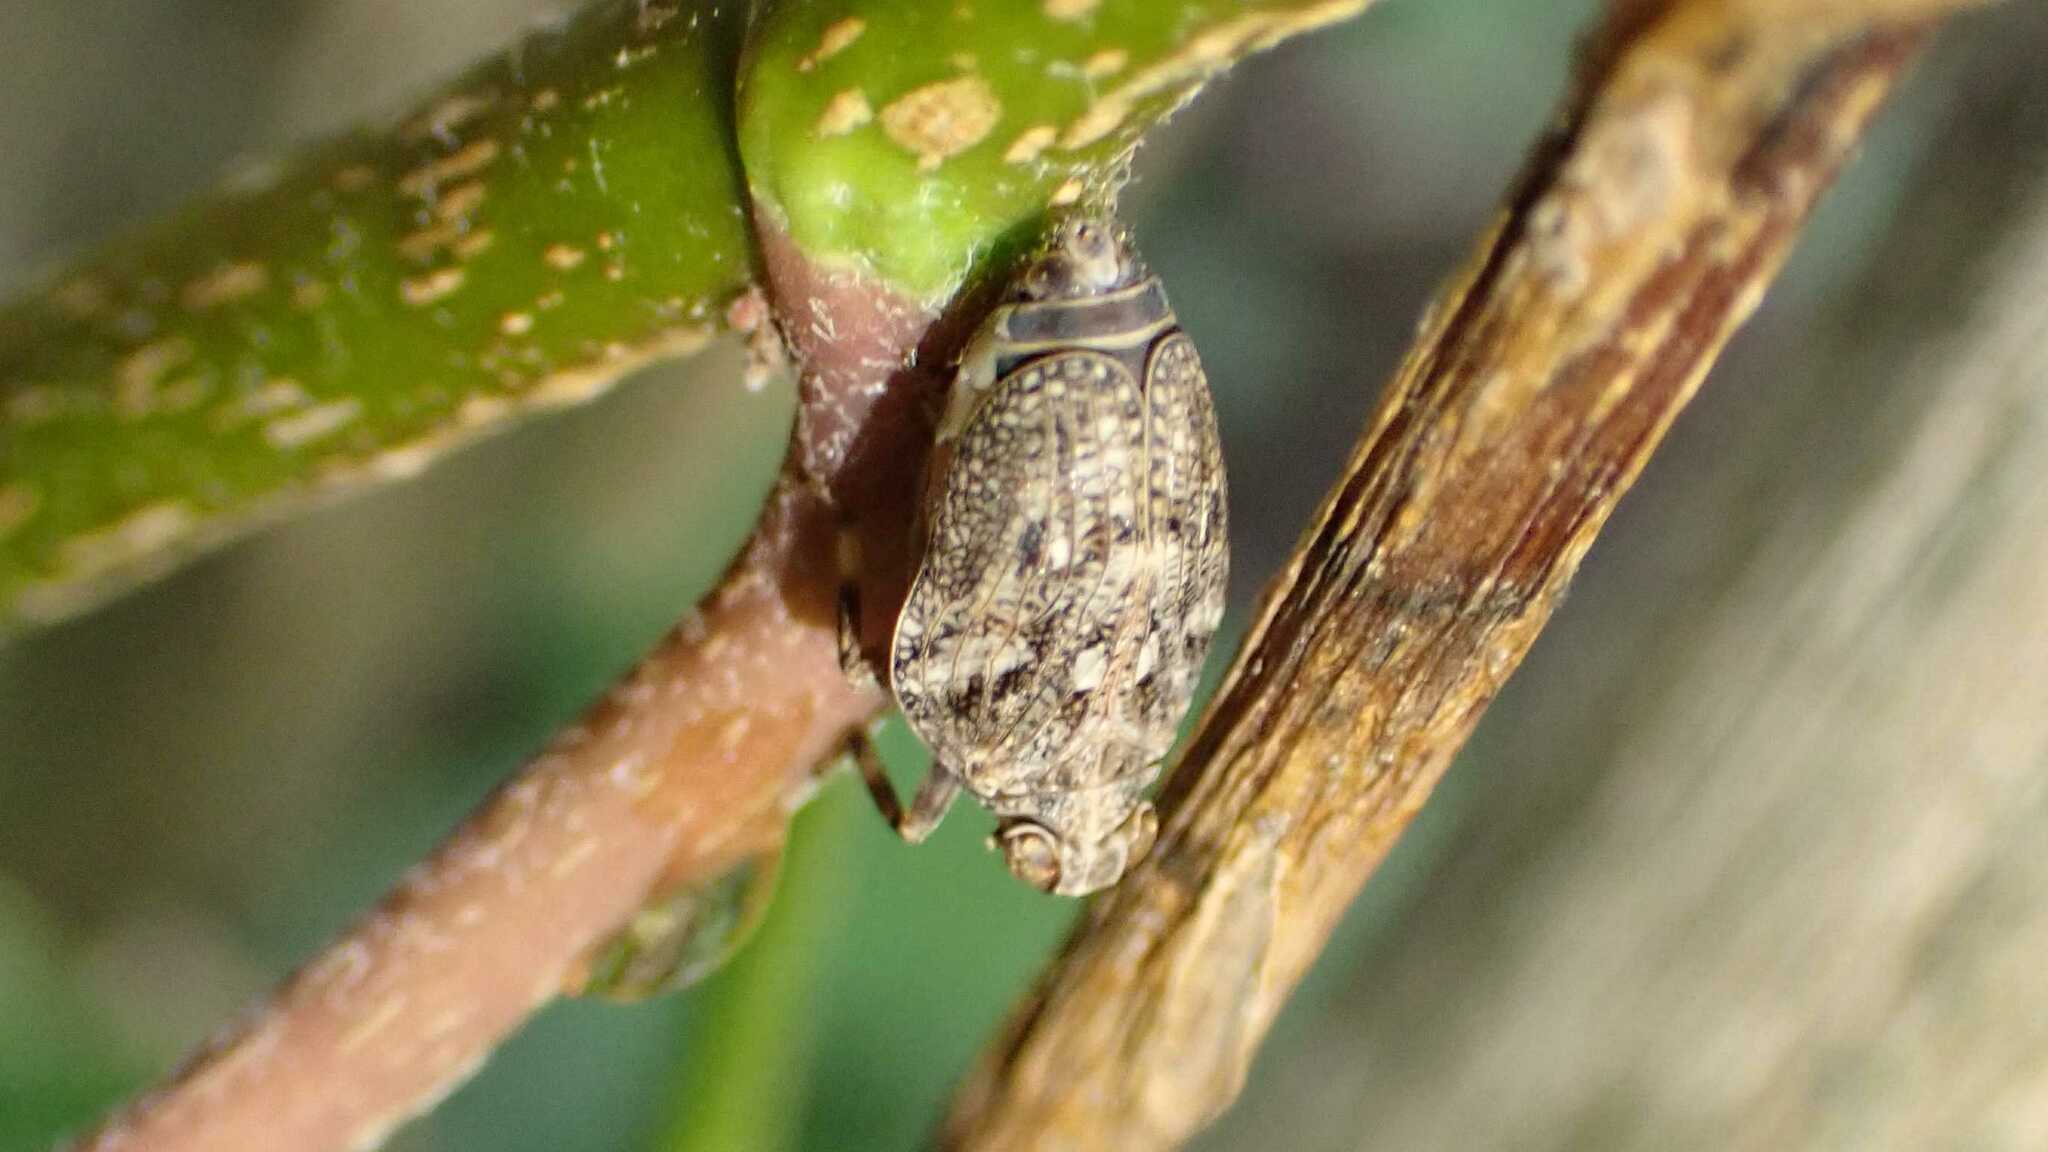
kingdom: Animalia
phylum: Arthropoda
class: Insecta
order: Hemiptera
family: Issidae
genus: Issus
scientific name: Issus coleoptratus
